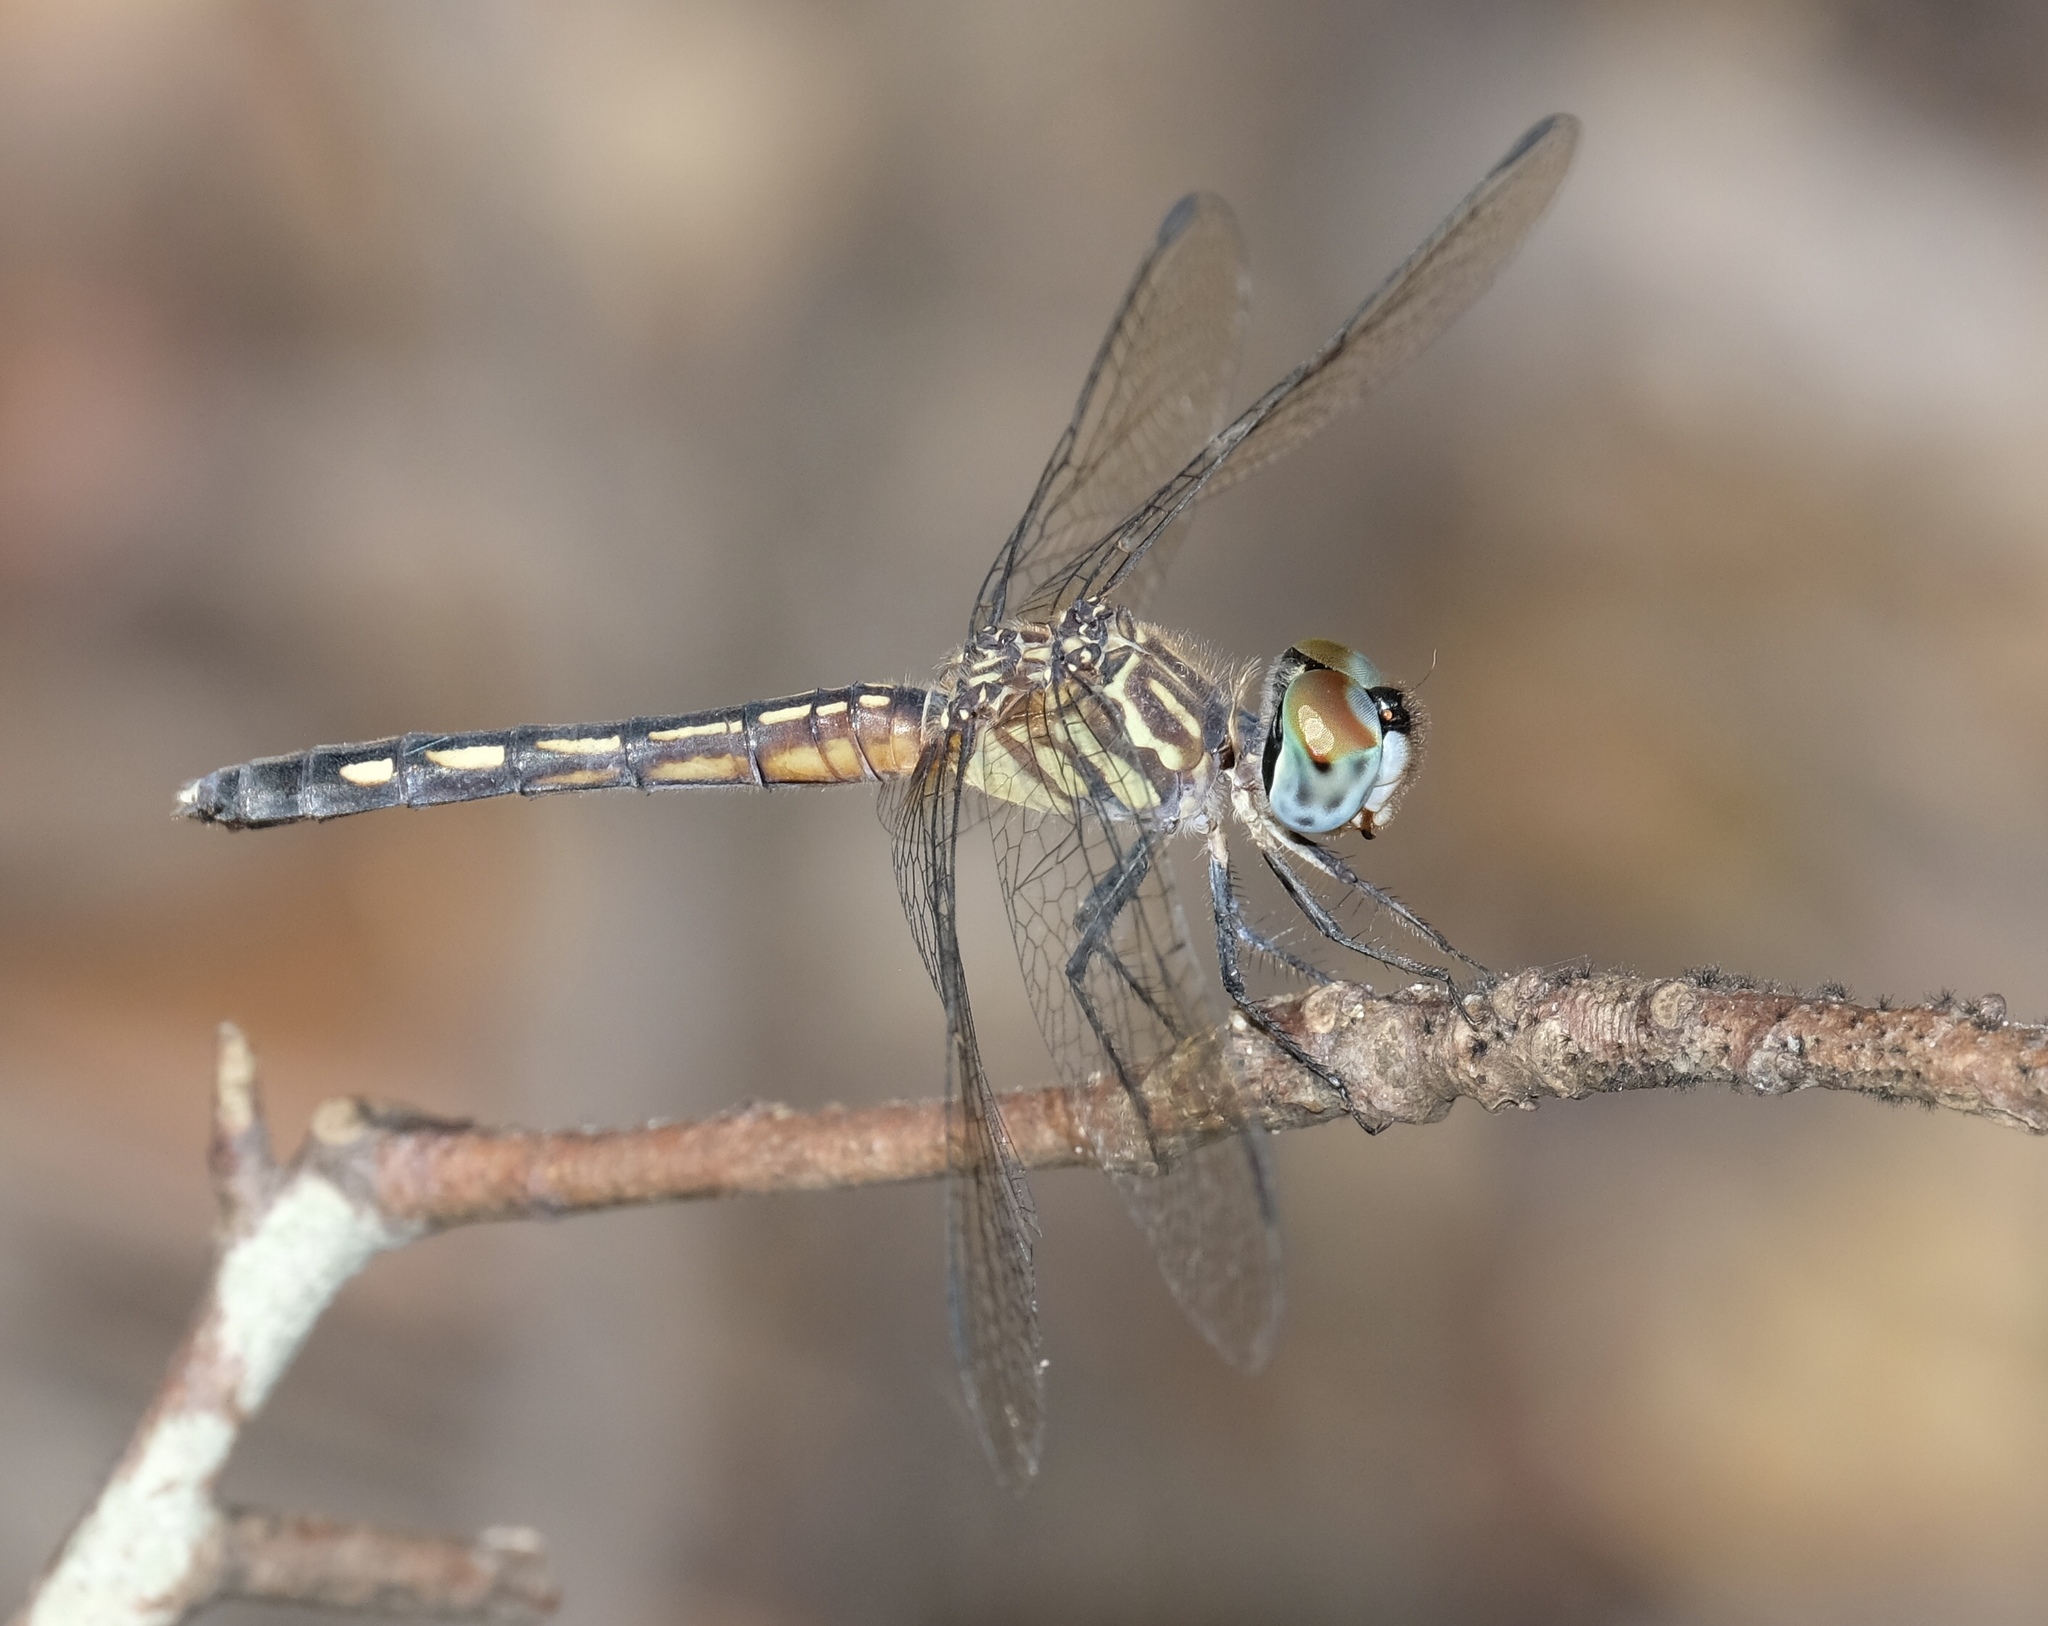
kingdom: Animalia
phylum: Arthropoda
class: Insecta
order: Odonata
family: Libellulidae
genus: Pachydiplax
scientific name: Pachydiplax longipennis
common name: Blue dasher
